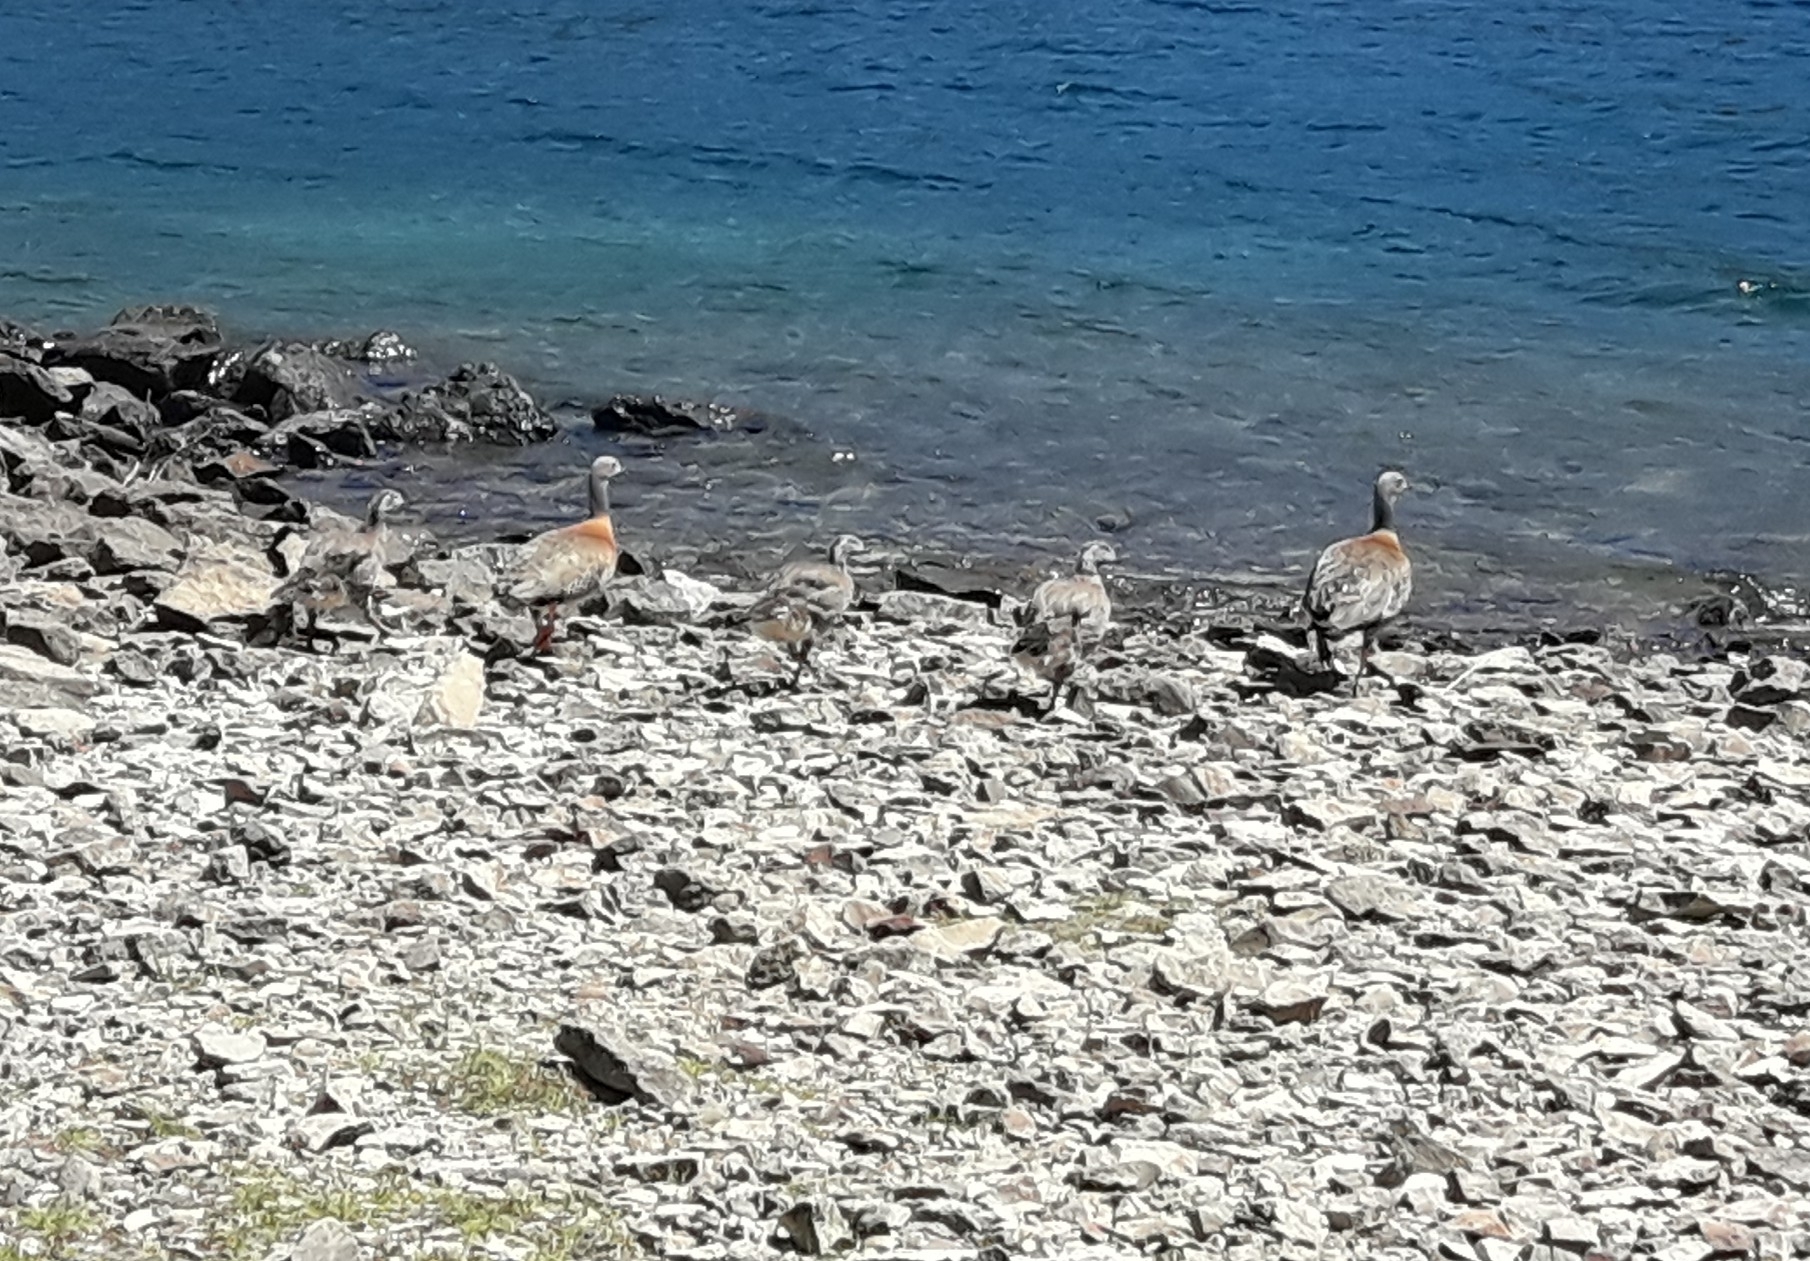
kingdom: Animalia
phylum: Chordata
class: Aves
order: Anseriformes
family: Anatidae
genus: Chloephaga
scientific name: Chloephaga poliocephala
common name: Ashy-headed goose
